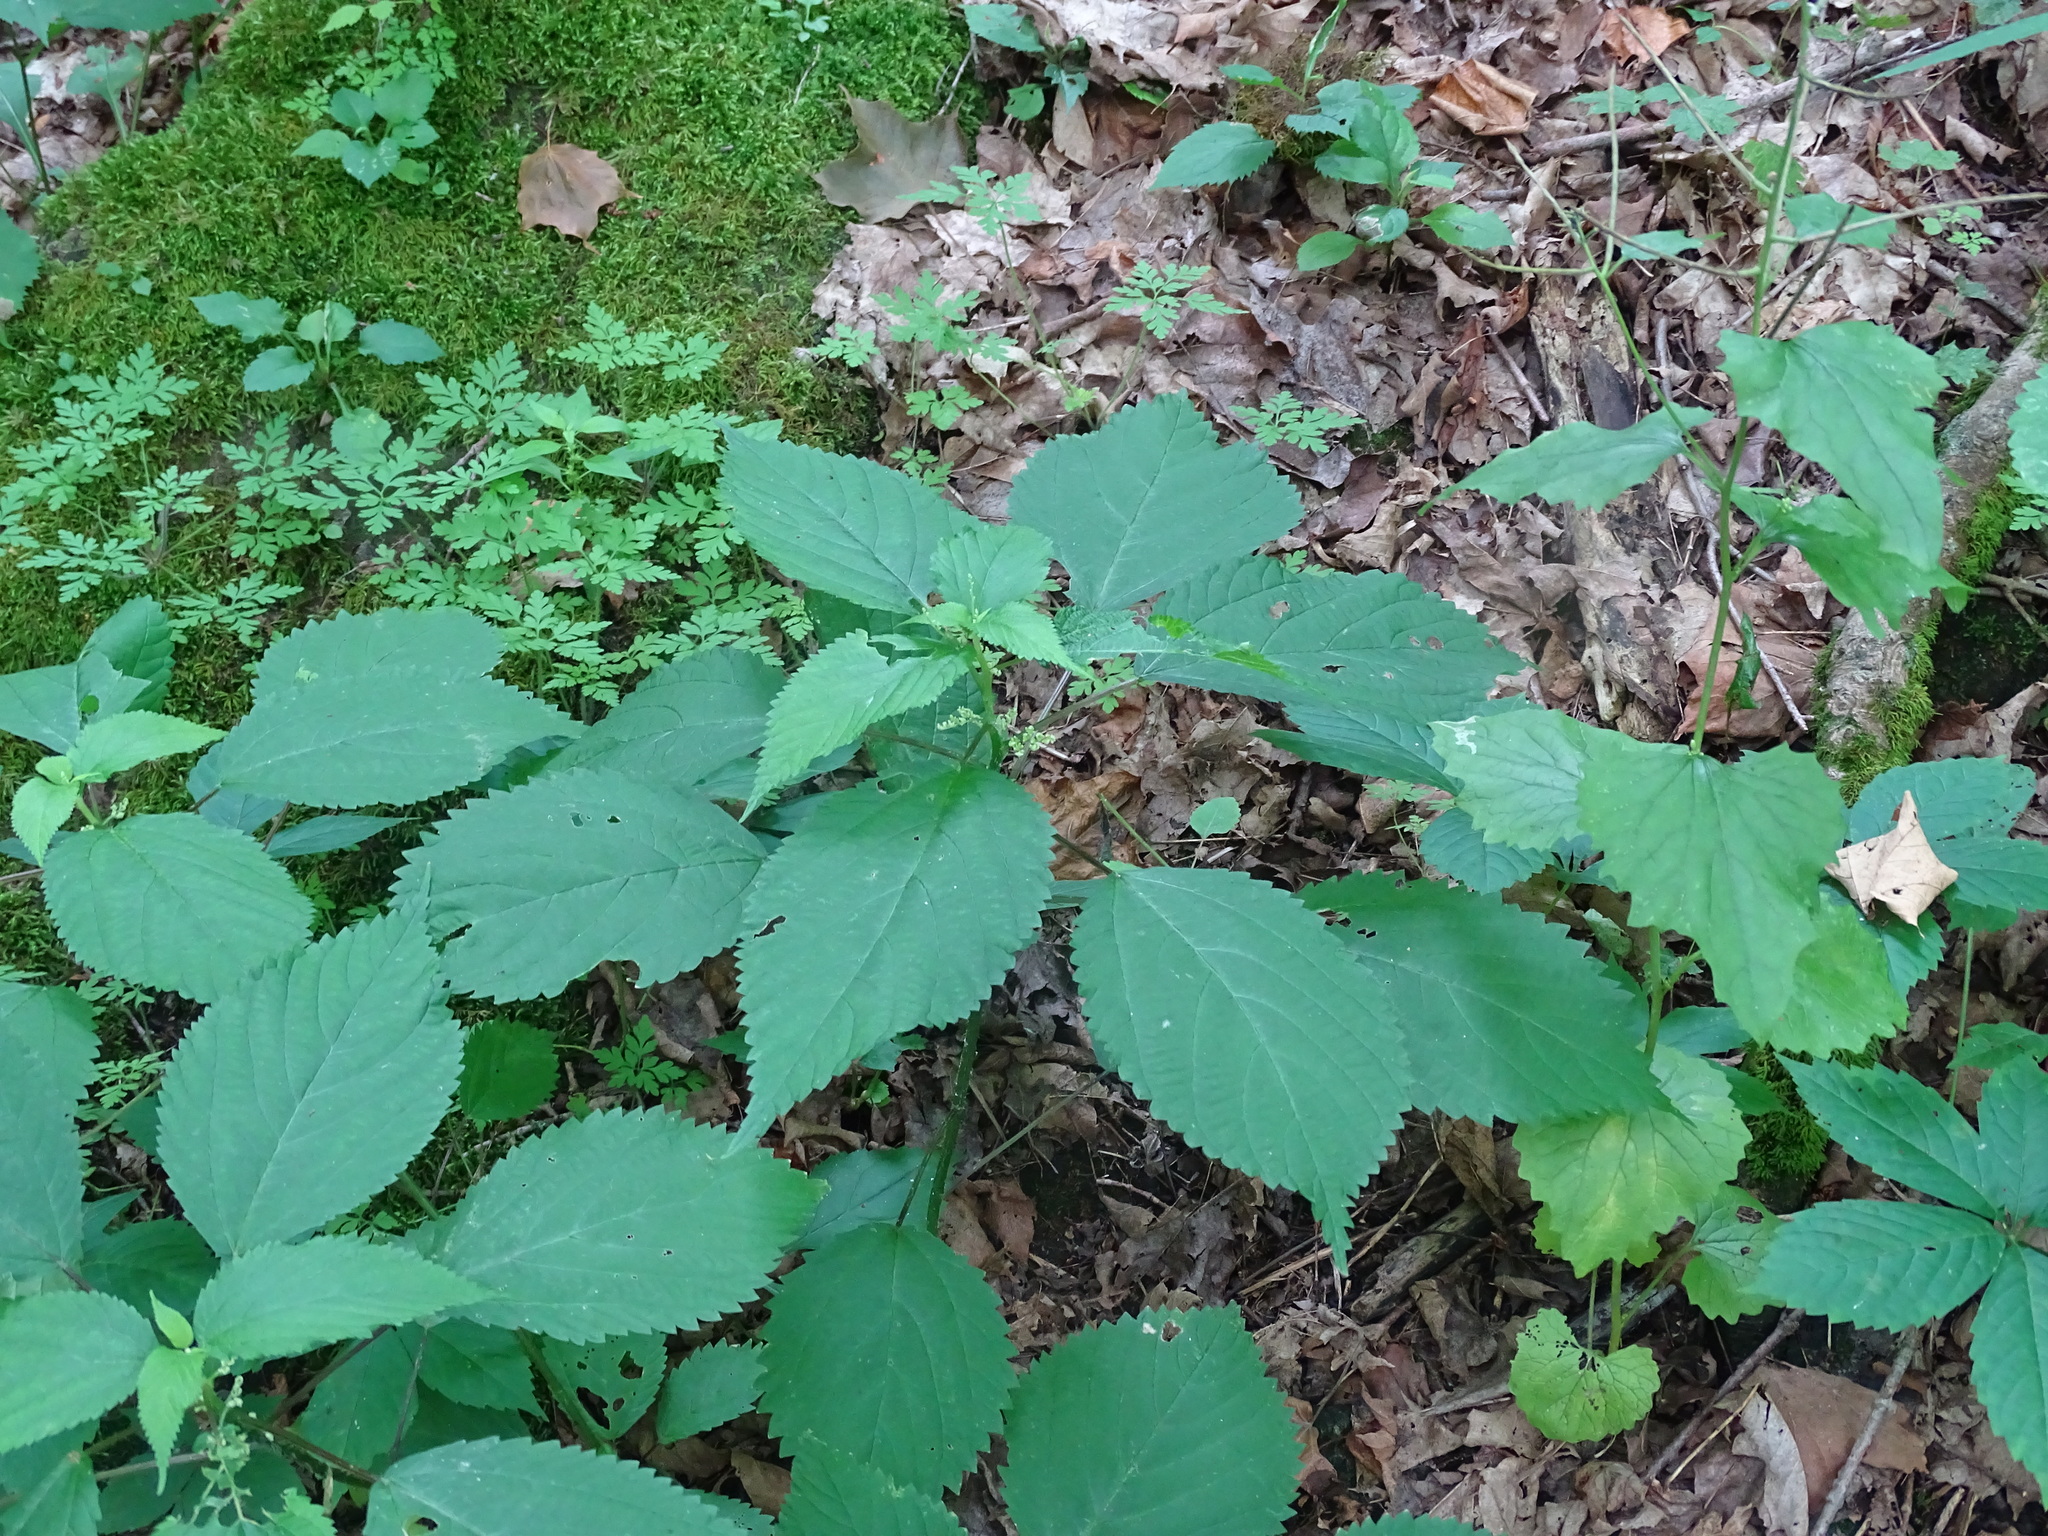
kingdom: Plantae
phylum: Tracheophyta
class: Magnoliopsida
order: Rosales
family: Urticaceae
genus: Laportea
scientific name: Laportea canadensis
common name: Canada nettle
